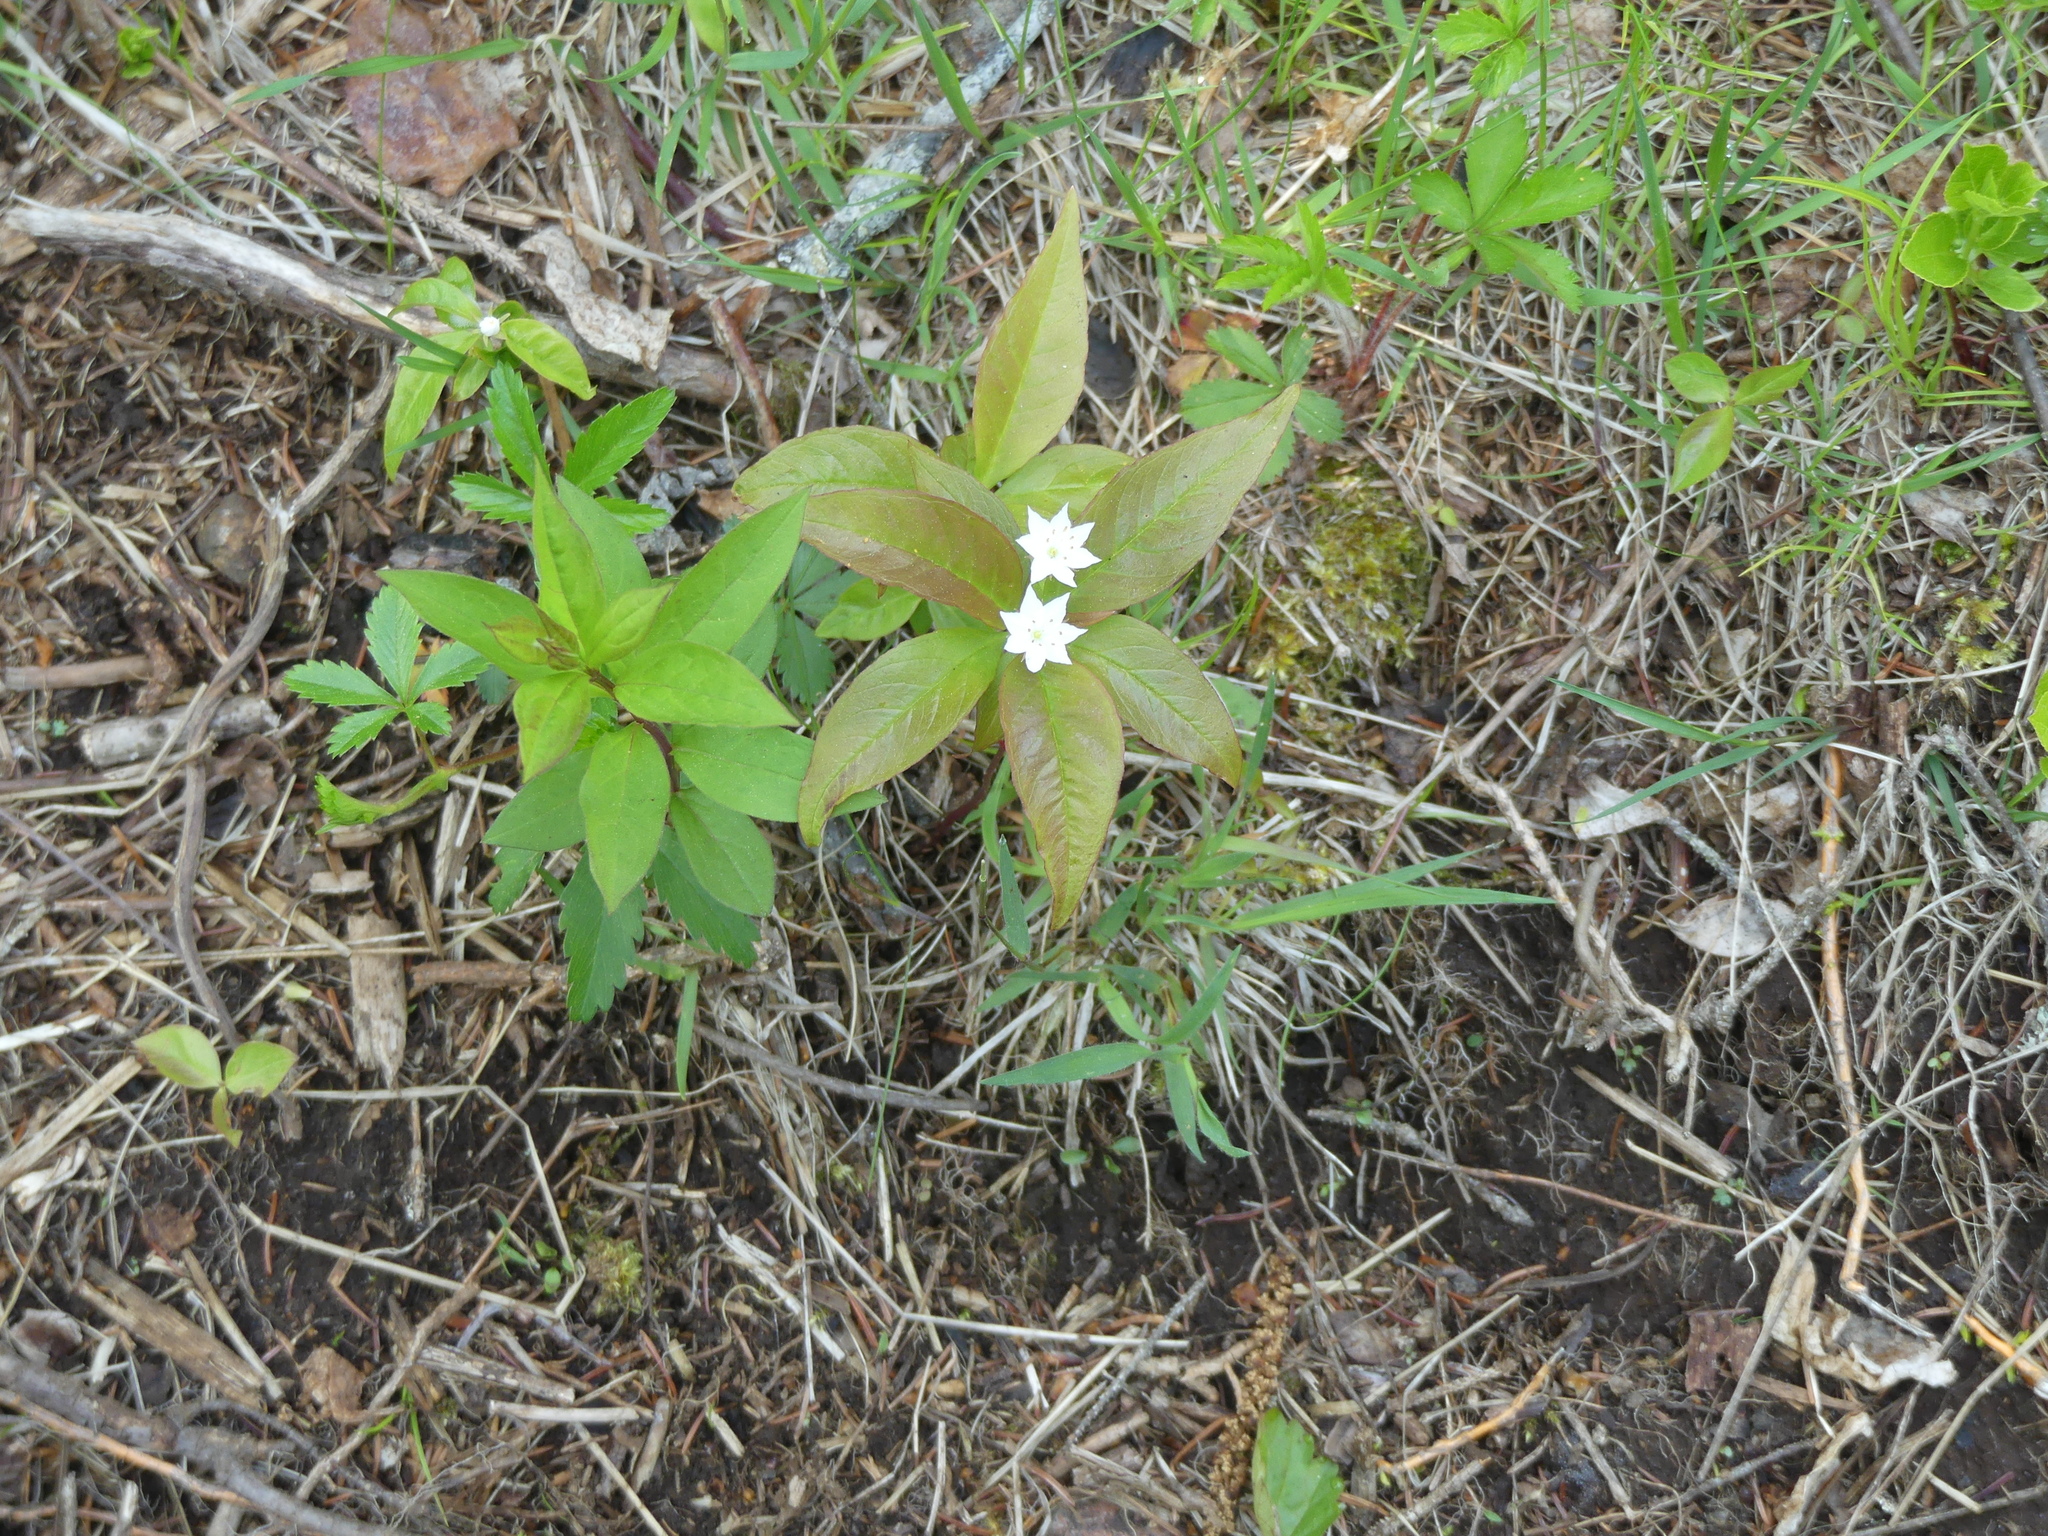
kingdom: Plantae
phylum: Tracheophyta
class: Magnoliopsida
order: Ericales
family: Primulaceae
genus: Lysimachia
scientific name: Lysimachia borealis
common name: American starflower
